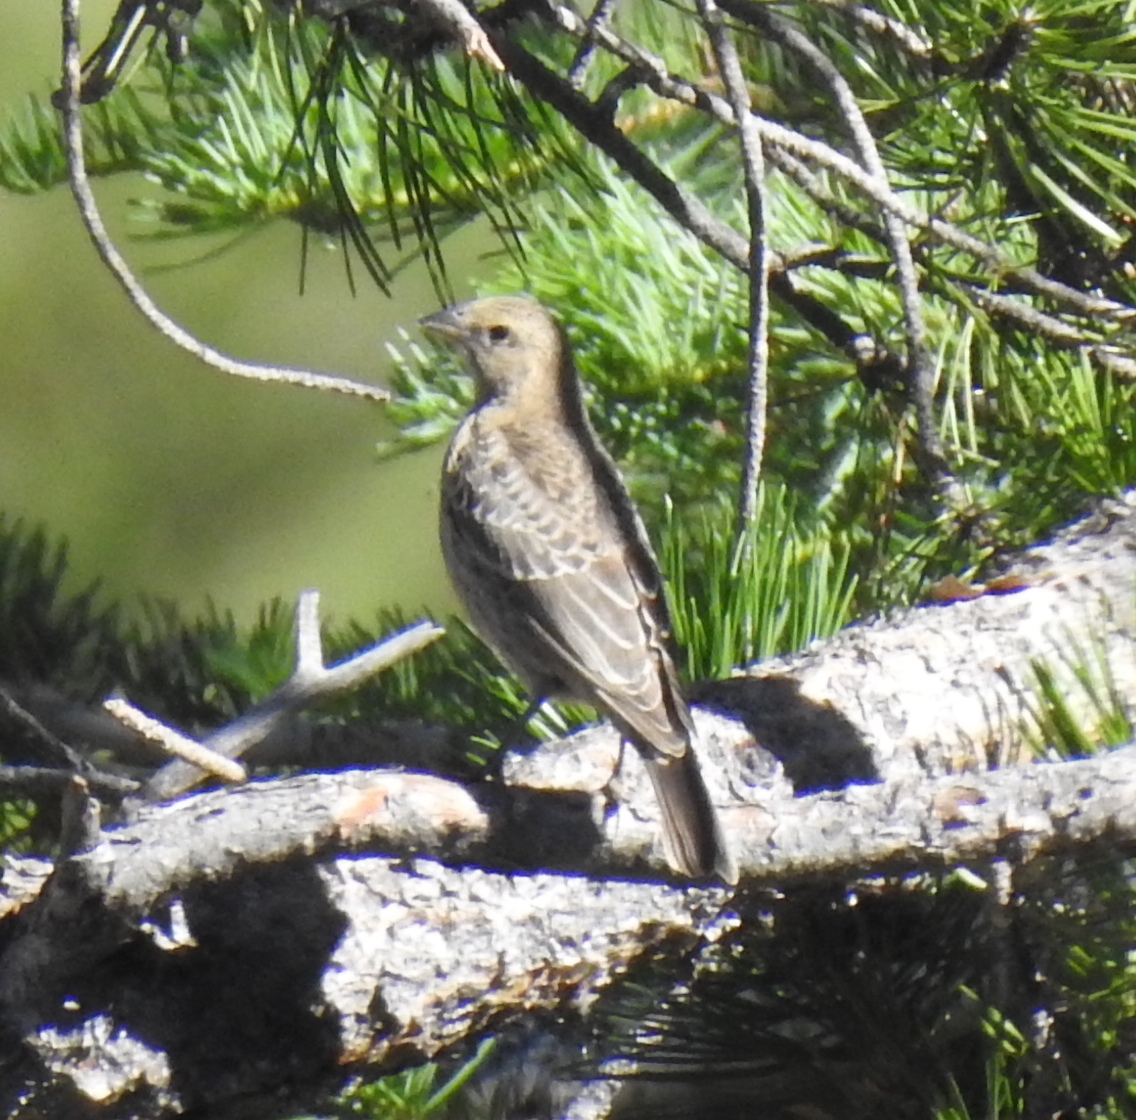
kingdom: Animalia
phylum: Chordata
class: Aves
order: Passeriformes
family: Icteridae
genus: Molothrus
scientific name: Molothrus ater
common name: Brown-headed cowbird
